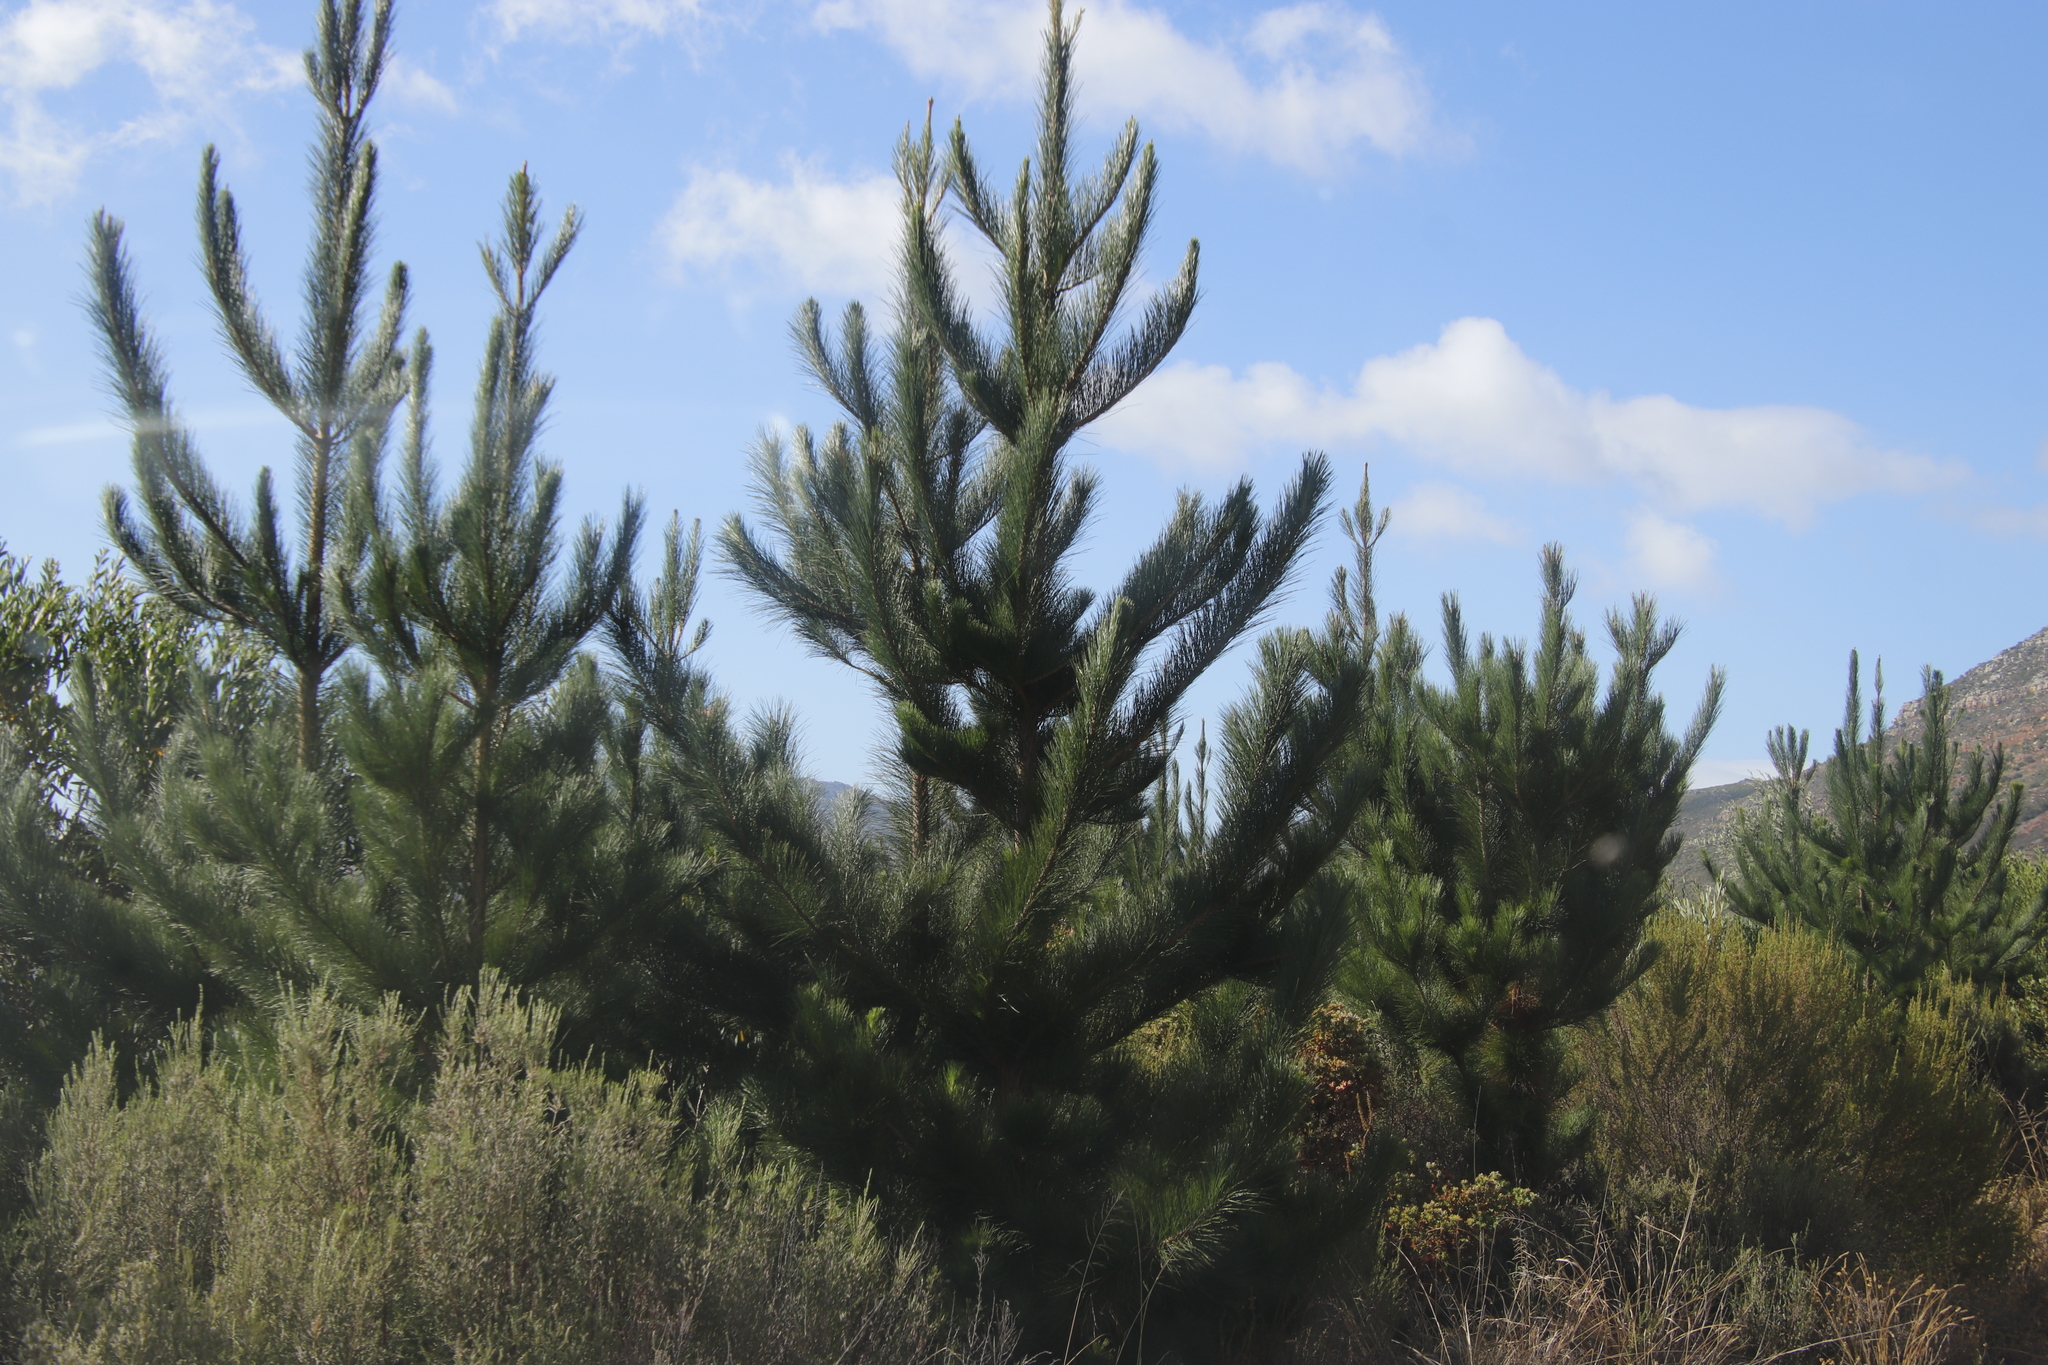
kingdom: Plantae
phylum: Tracheophyta
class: Pinopsida
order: Pinales
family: Pinaceae
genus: Pinus
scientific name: Pinus radiata
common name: Monterey pine
